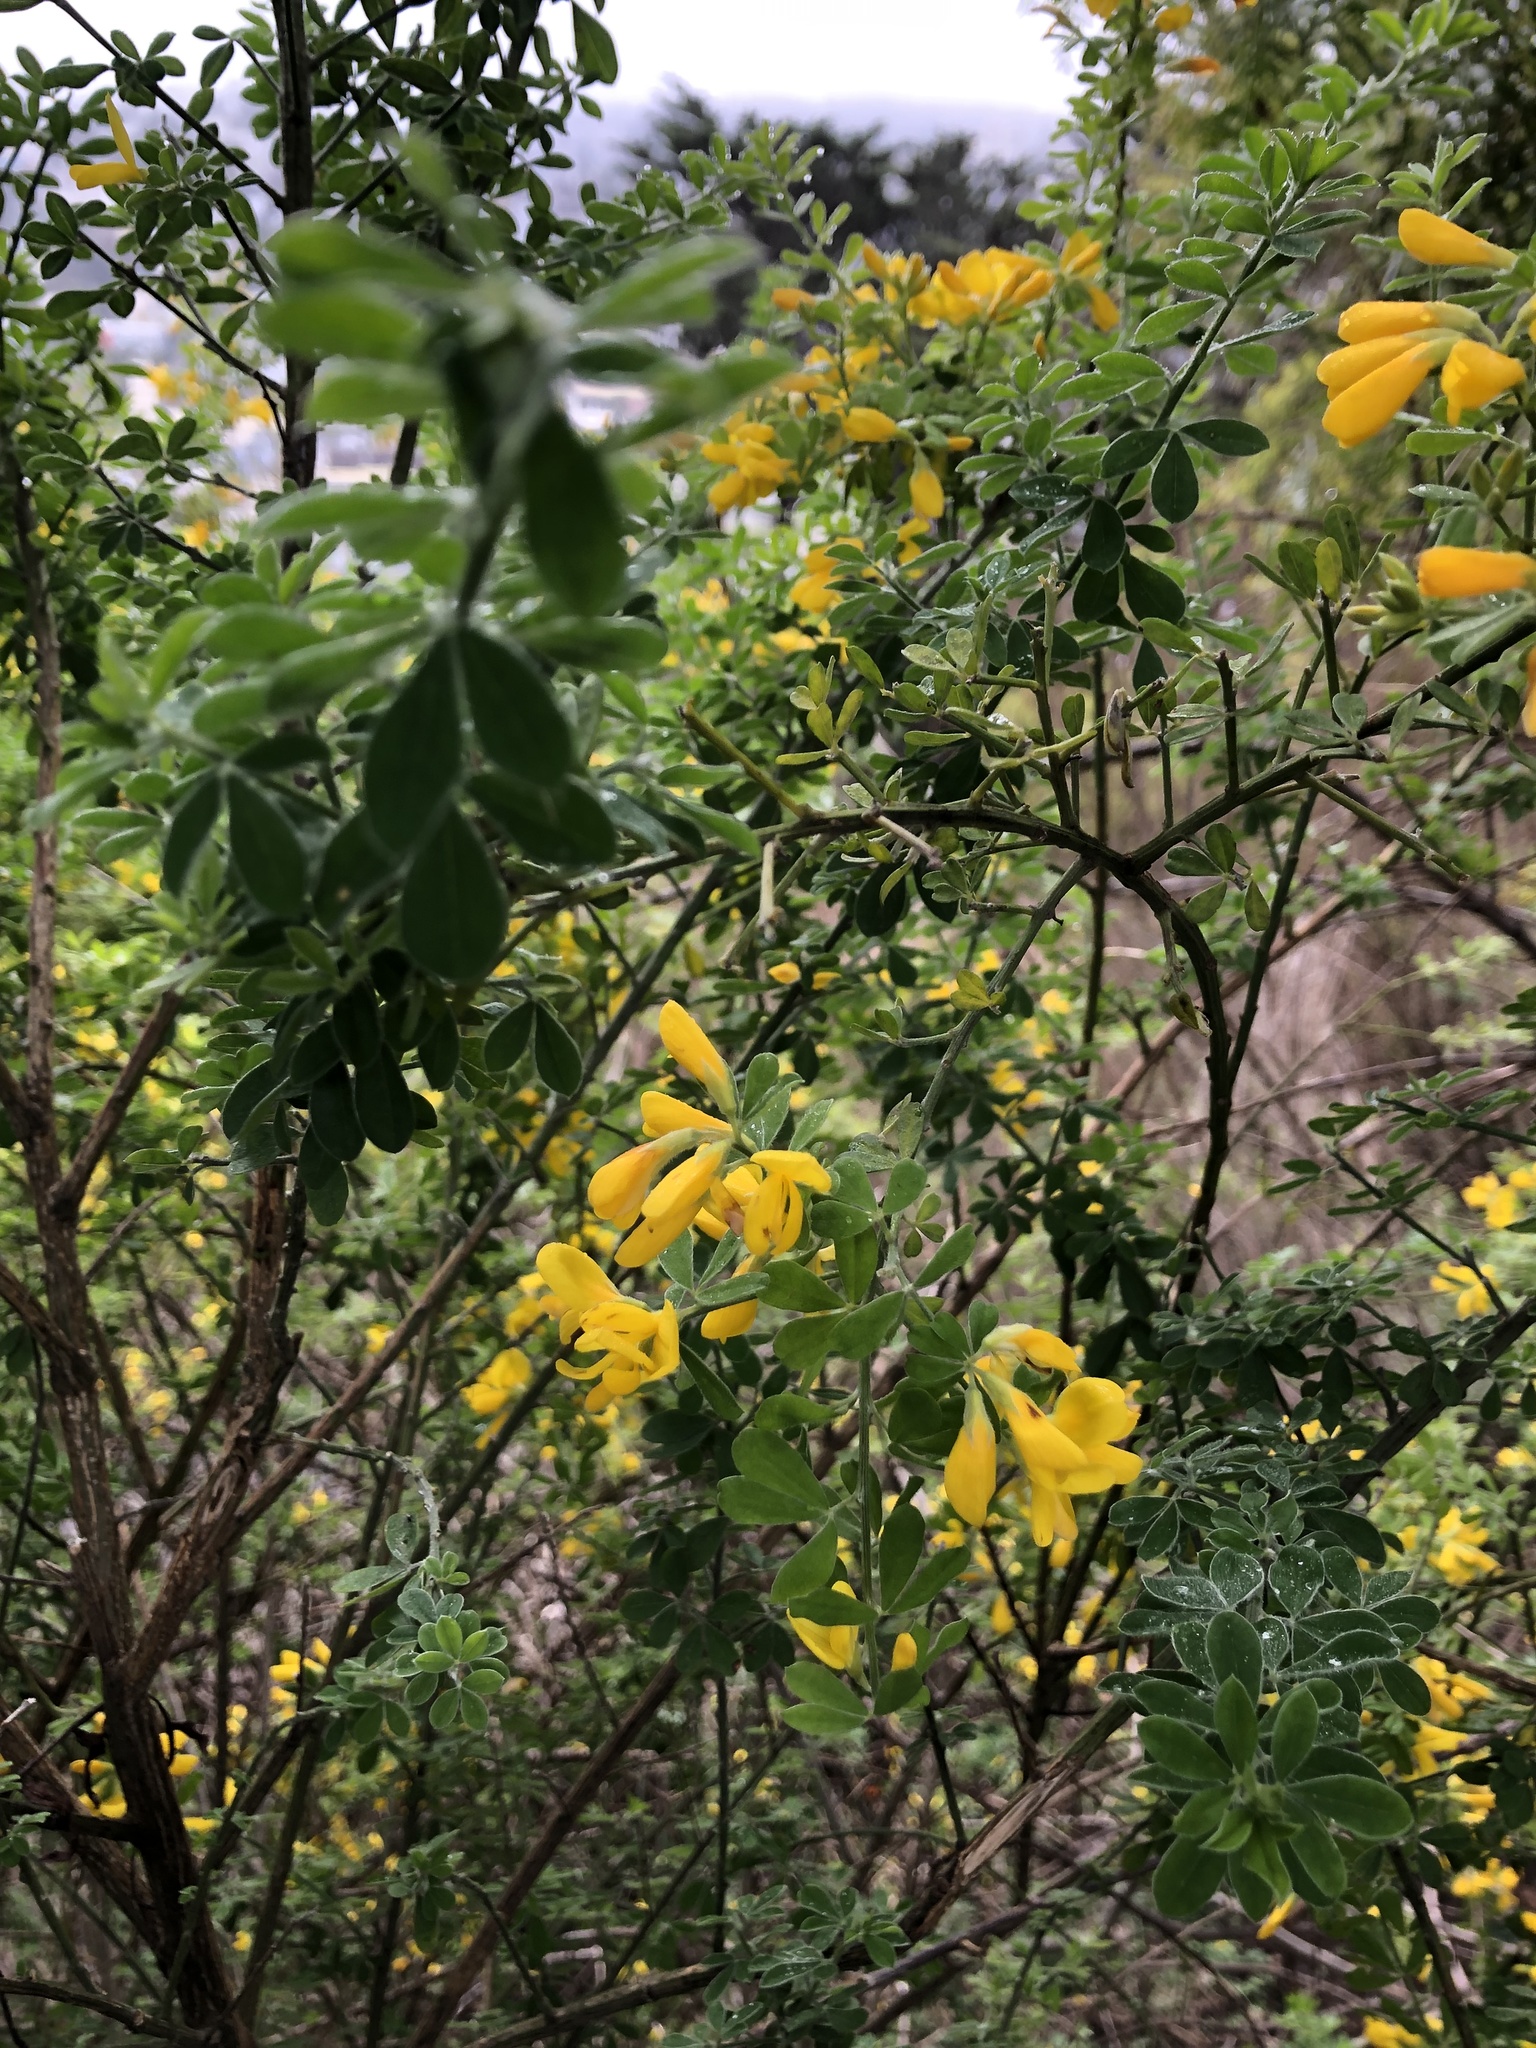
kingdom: Plantae
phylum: Tracheophyta
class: Magnoliopsida
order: Fabales
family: Fabaceae
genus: Genista
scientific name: Genista monspessulana
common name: Montpellier broom
